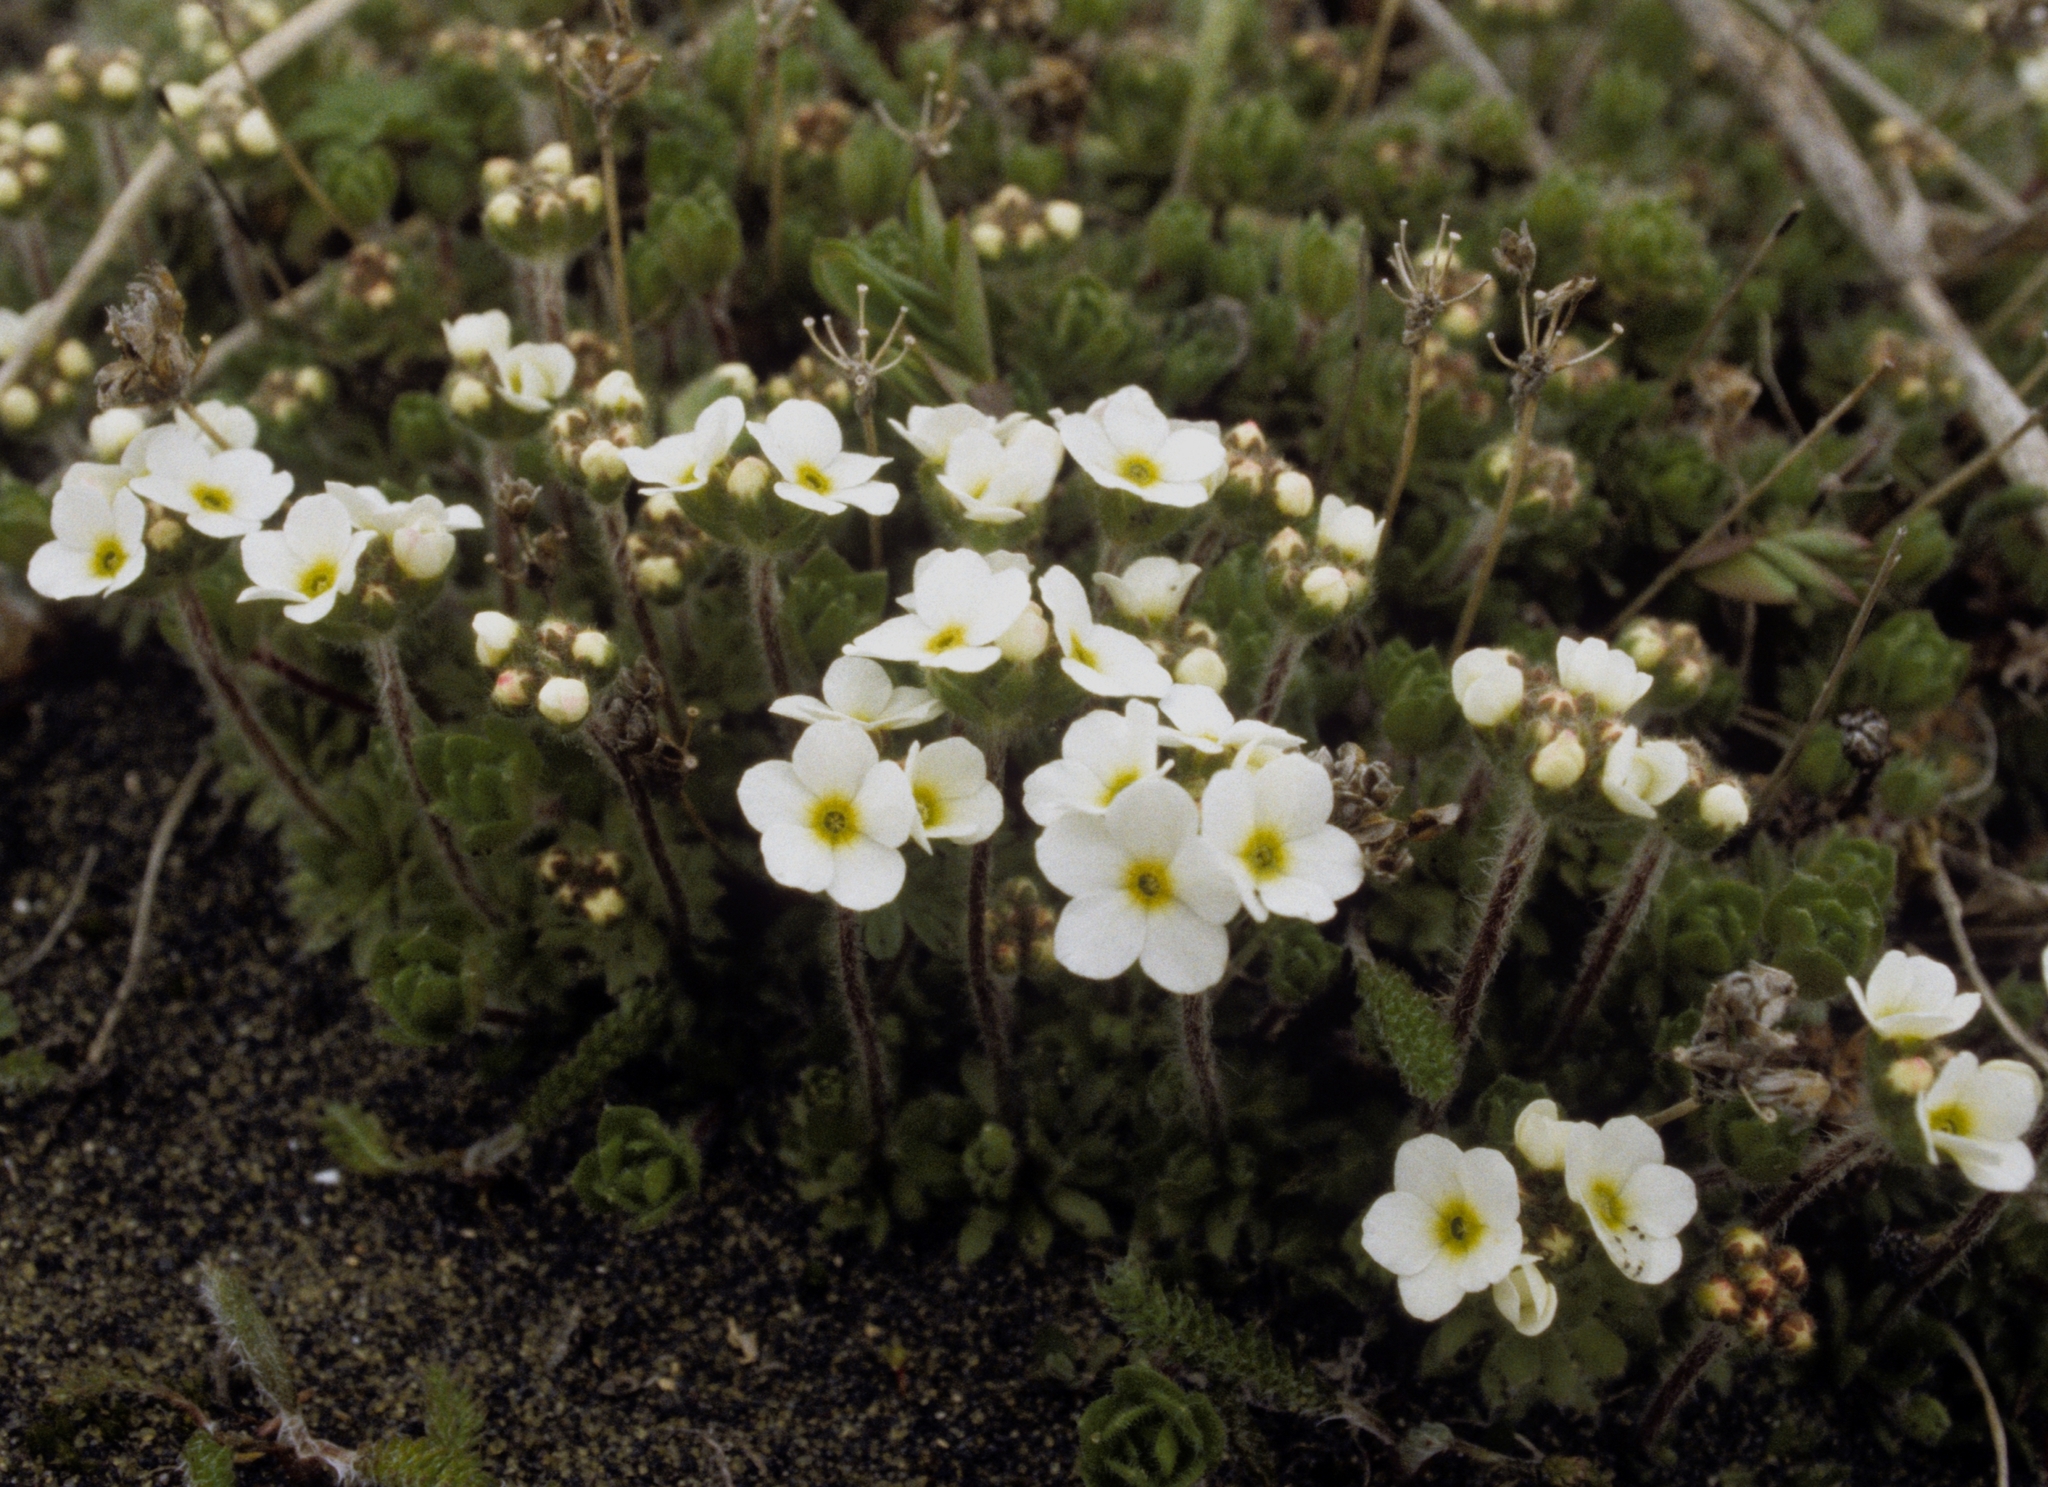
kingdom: Plantae
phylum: Tracheophyta
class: Magnoliopsida
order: Ericales
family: Primulaceae
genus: Androsace
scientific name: Androsace chamaejasme
